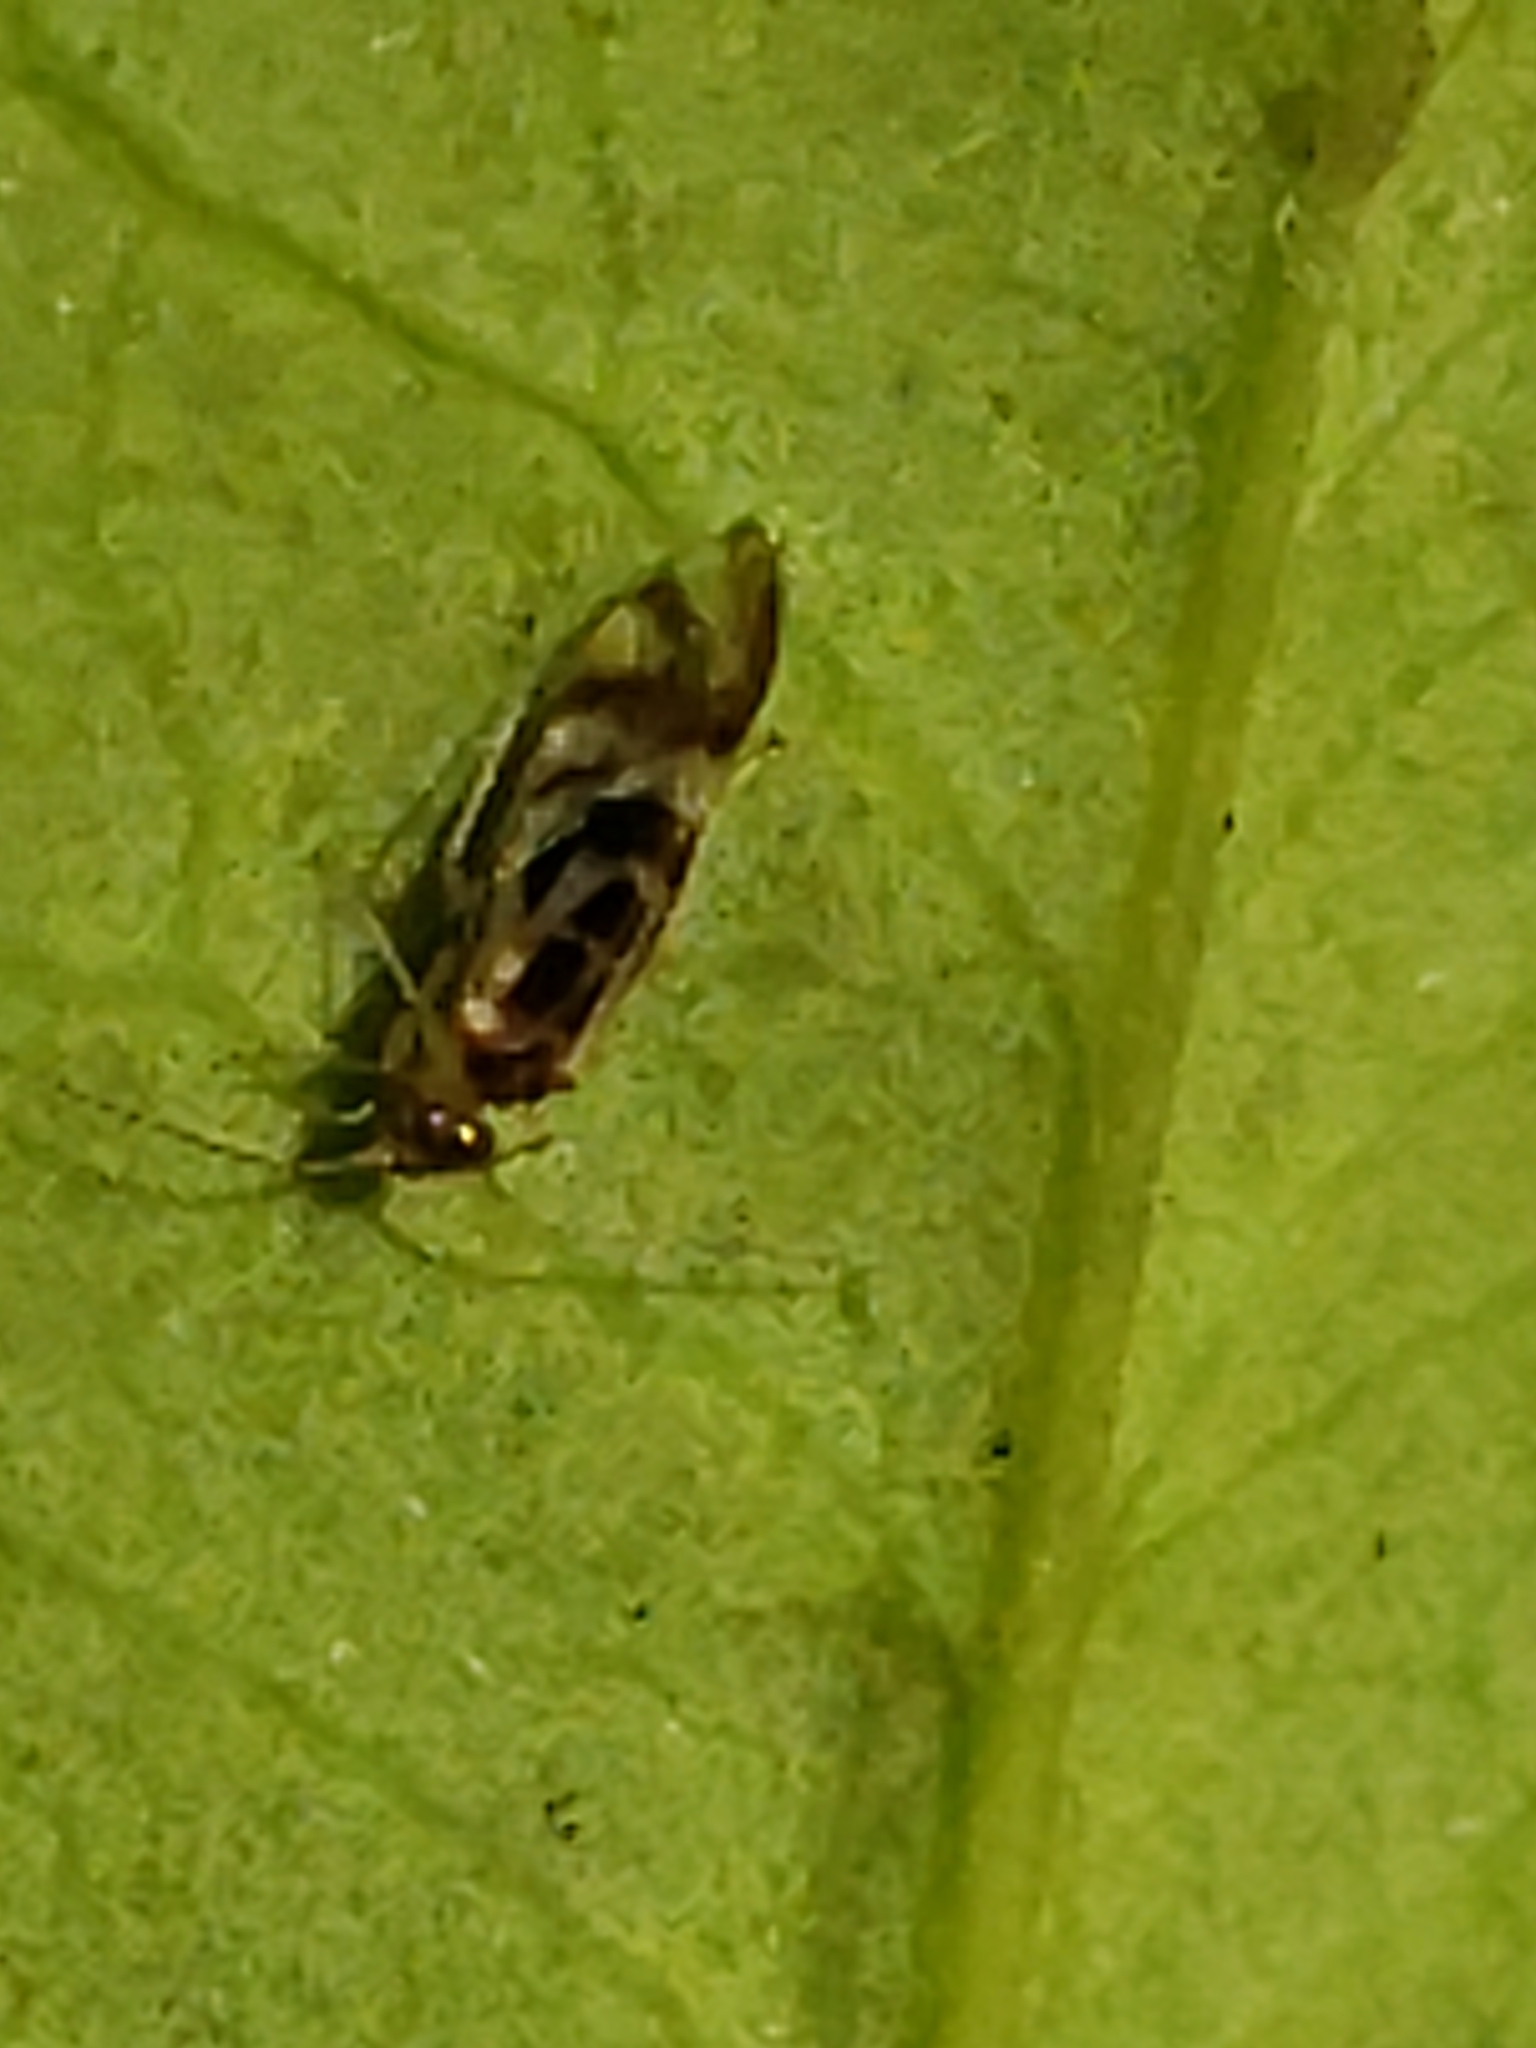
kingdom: Animalia
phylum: Arthropoda
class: Insecta
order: Psocodea
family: Stenopsocidae
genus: Graphopsocus
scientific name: Graphopsocus cruciatus
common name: Lizard bark louse
